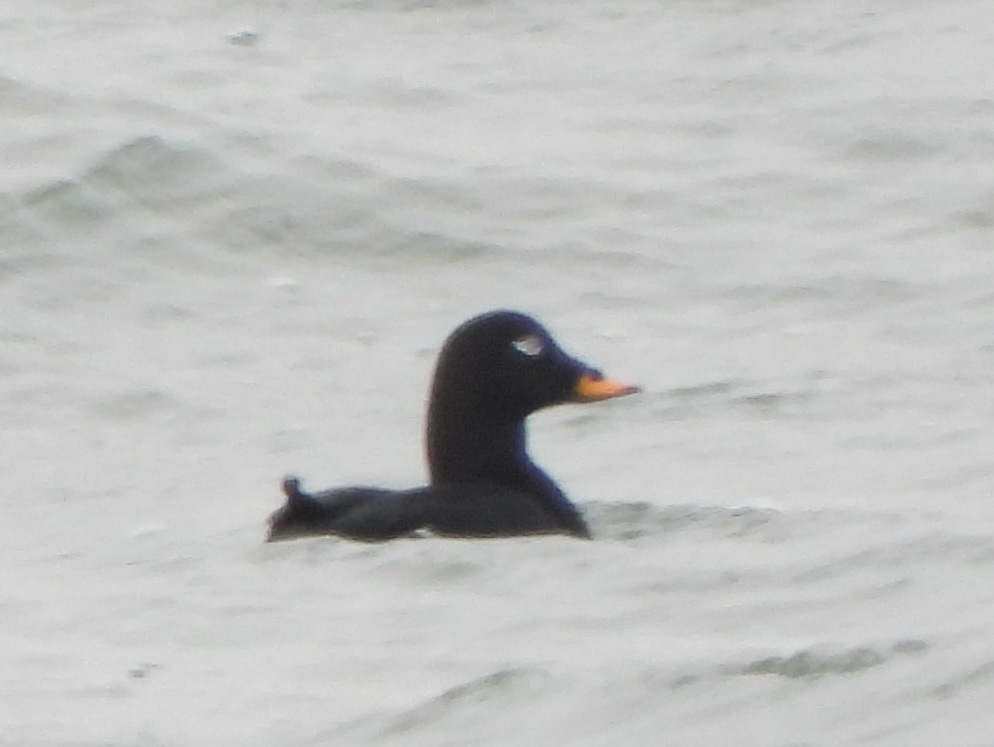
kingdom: Animalia
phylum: Chordata
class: Aves
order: Anseriformes
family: Anatidae
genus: Melanitta
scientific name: Melanitta fusca
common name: Velvet scoter
